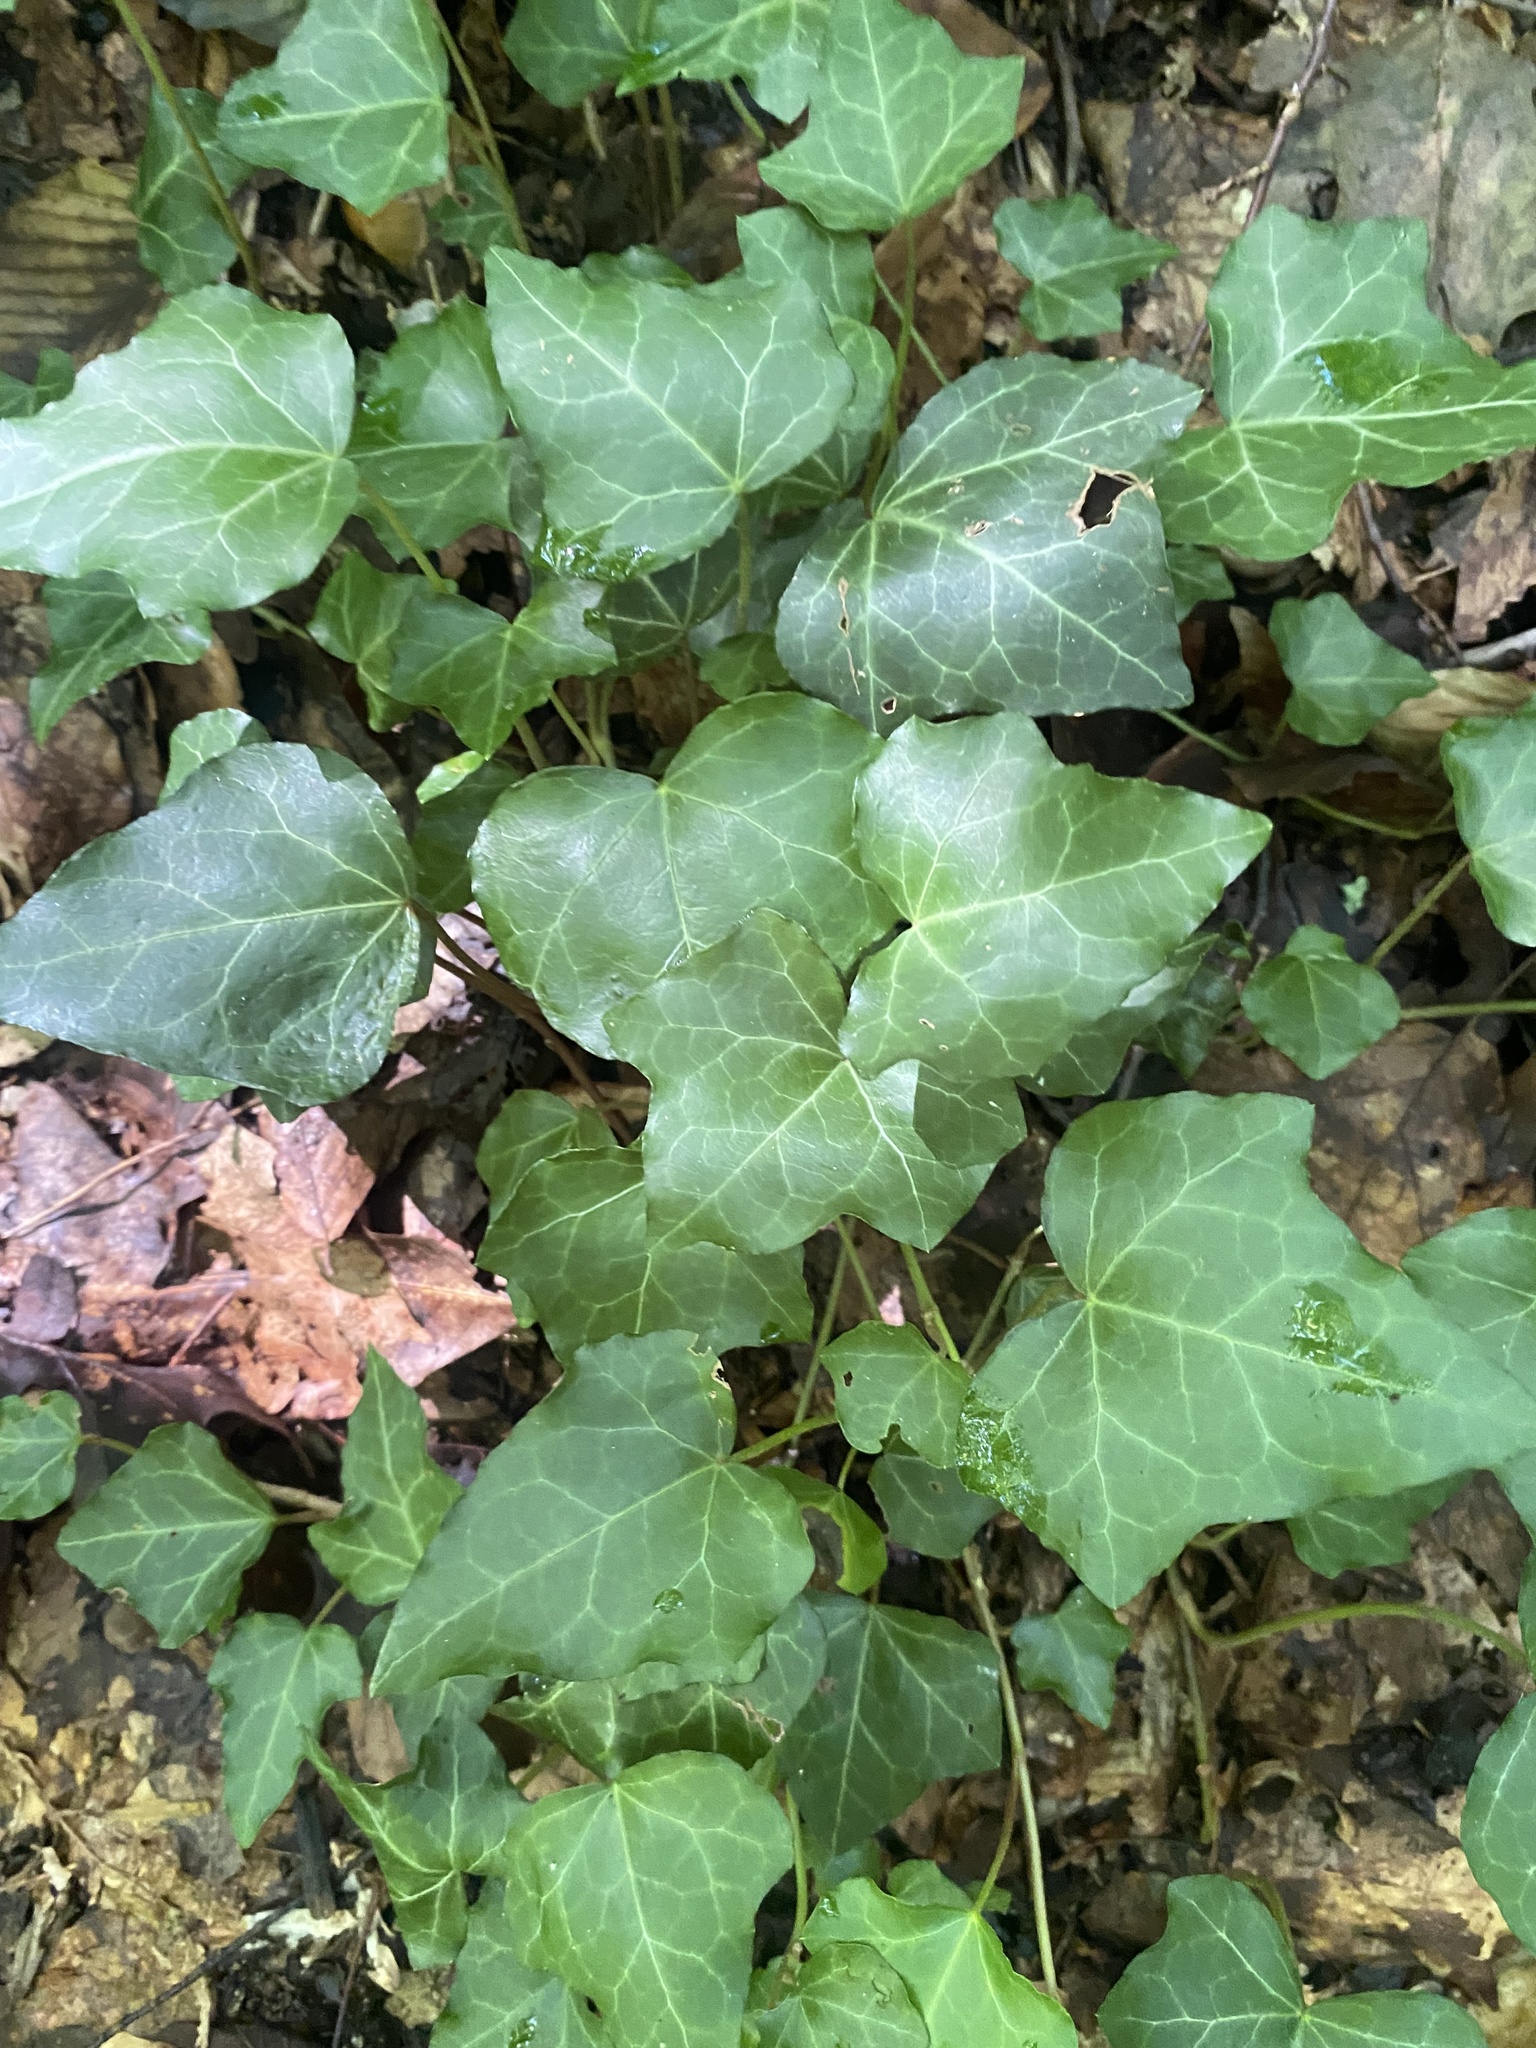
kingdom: Plantae
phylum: Tracheophyta
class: Magnoliopsida
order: Apiales
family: Araliaceae
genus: Hedera
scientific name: Hedera helix
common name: Ivy
